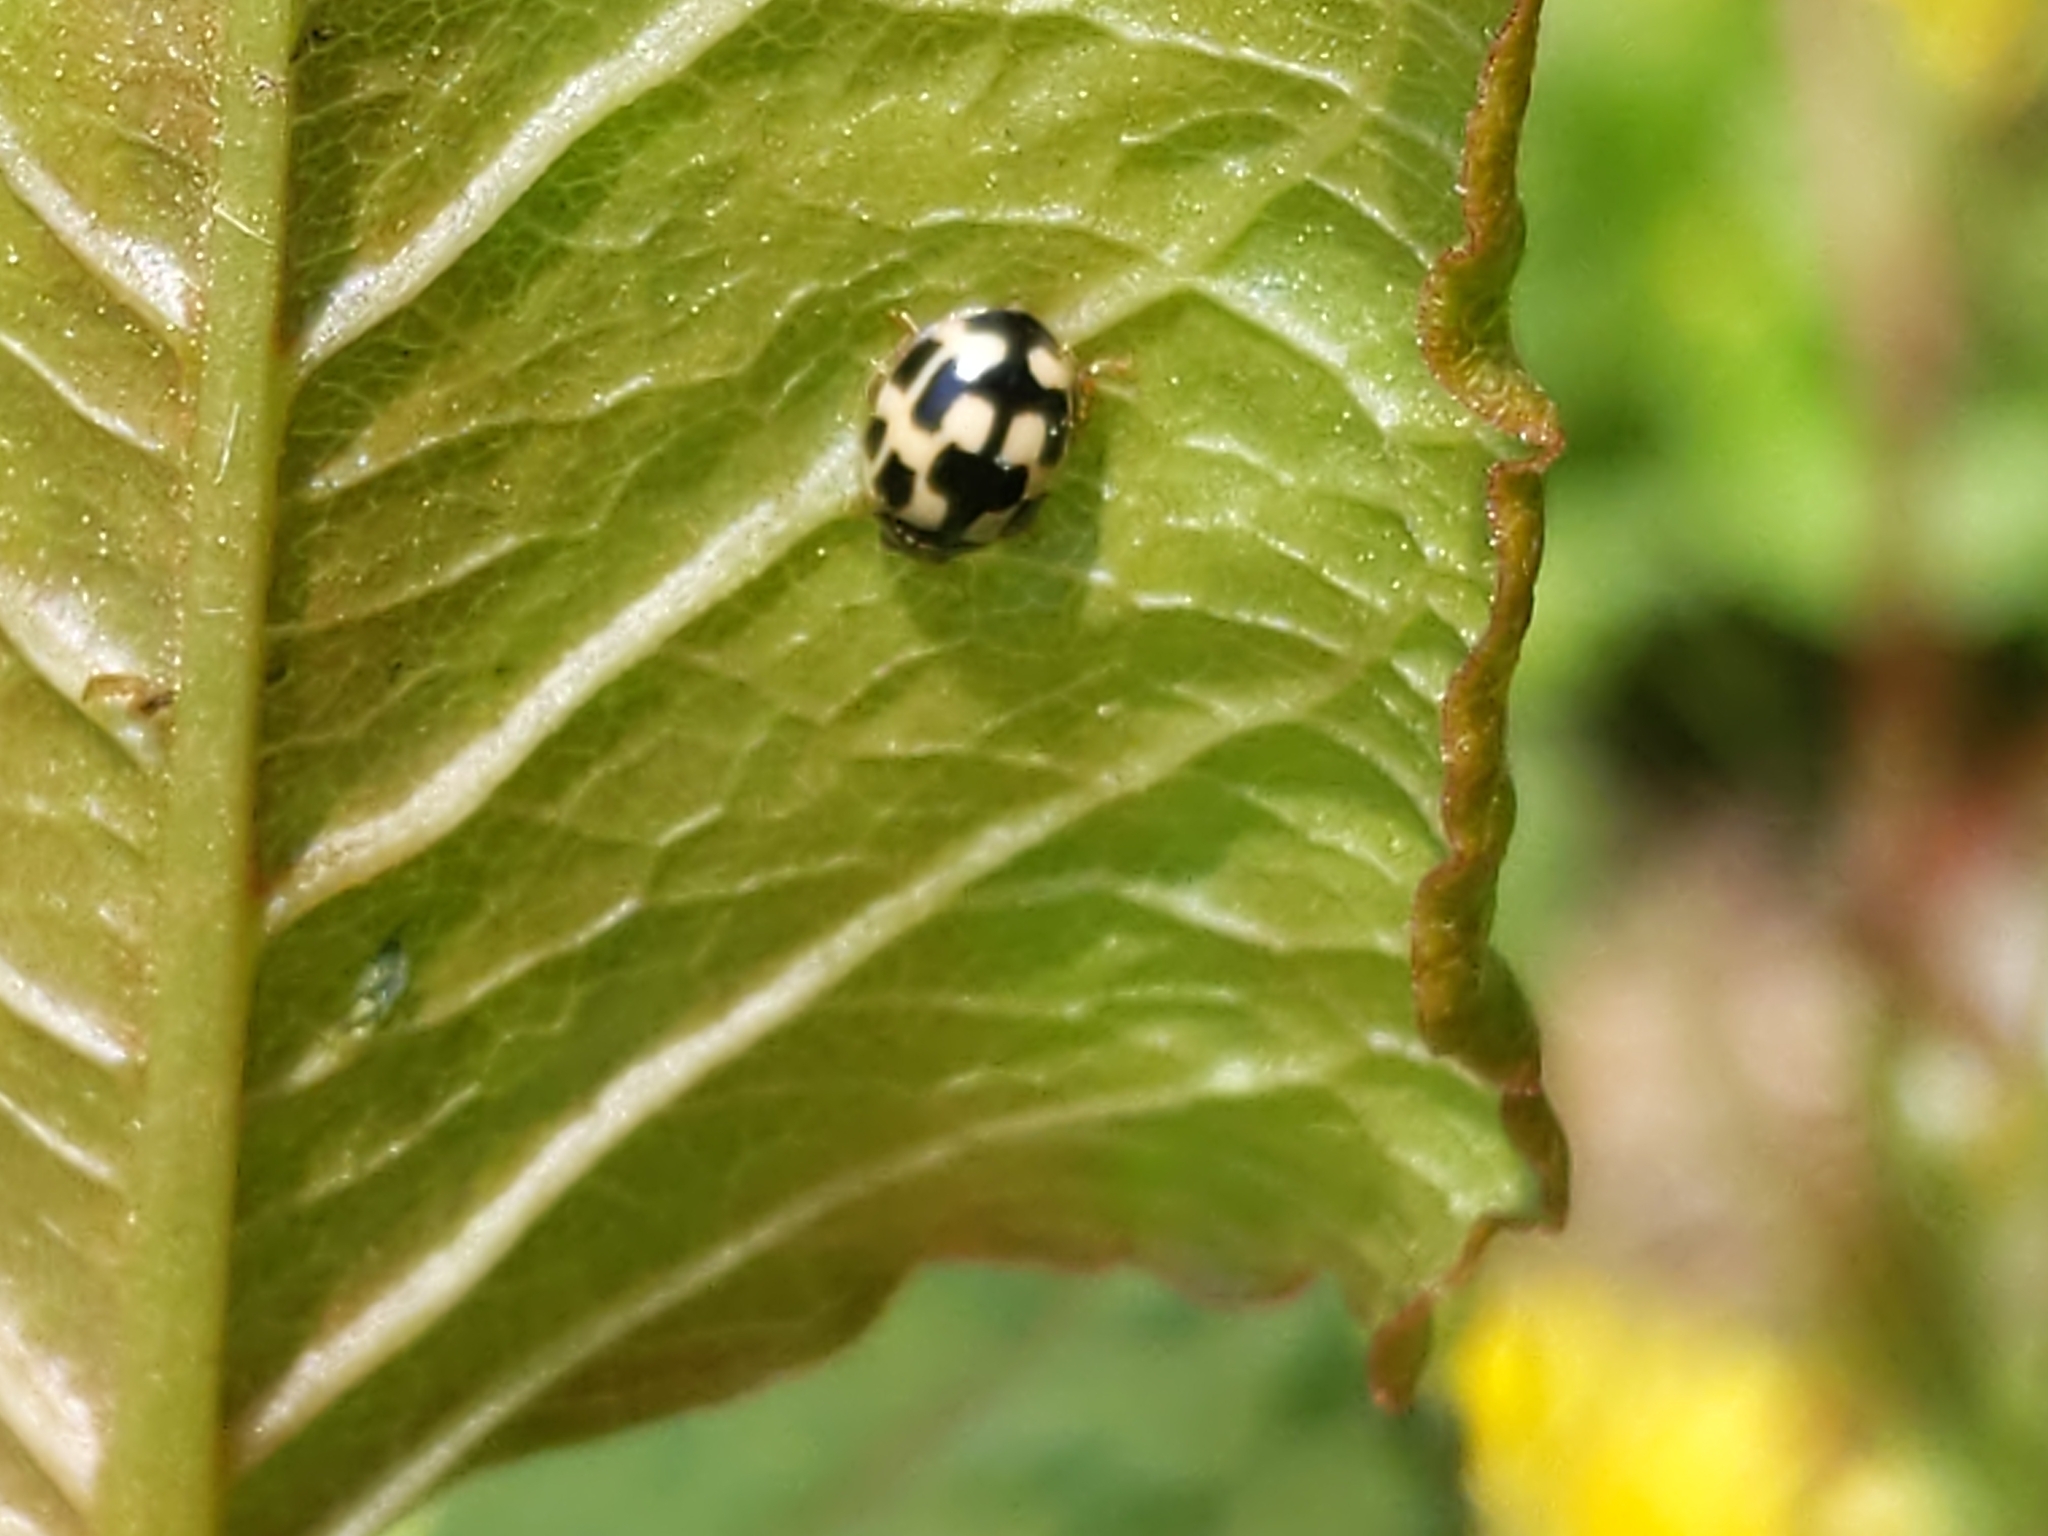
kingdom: Animalia
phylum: Arthropoda
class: Insecta
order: Coleoptera
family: Coccinellidae
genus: Propylaea
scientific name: Propylaea quatuordecimpunctata
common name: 14-spotted ladybird beetle
